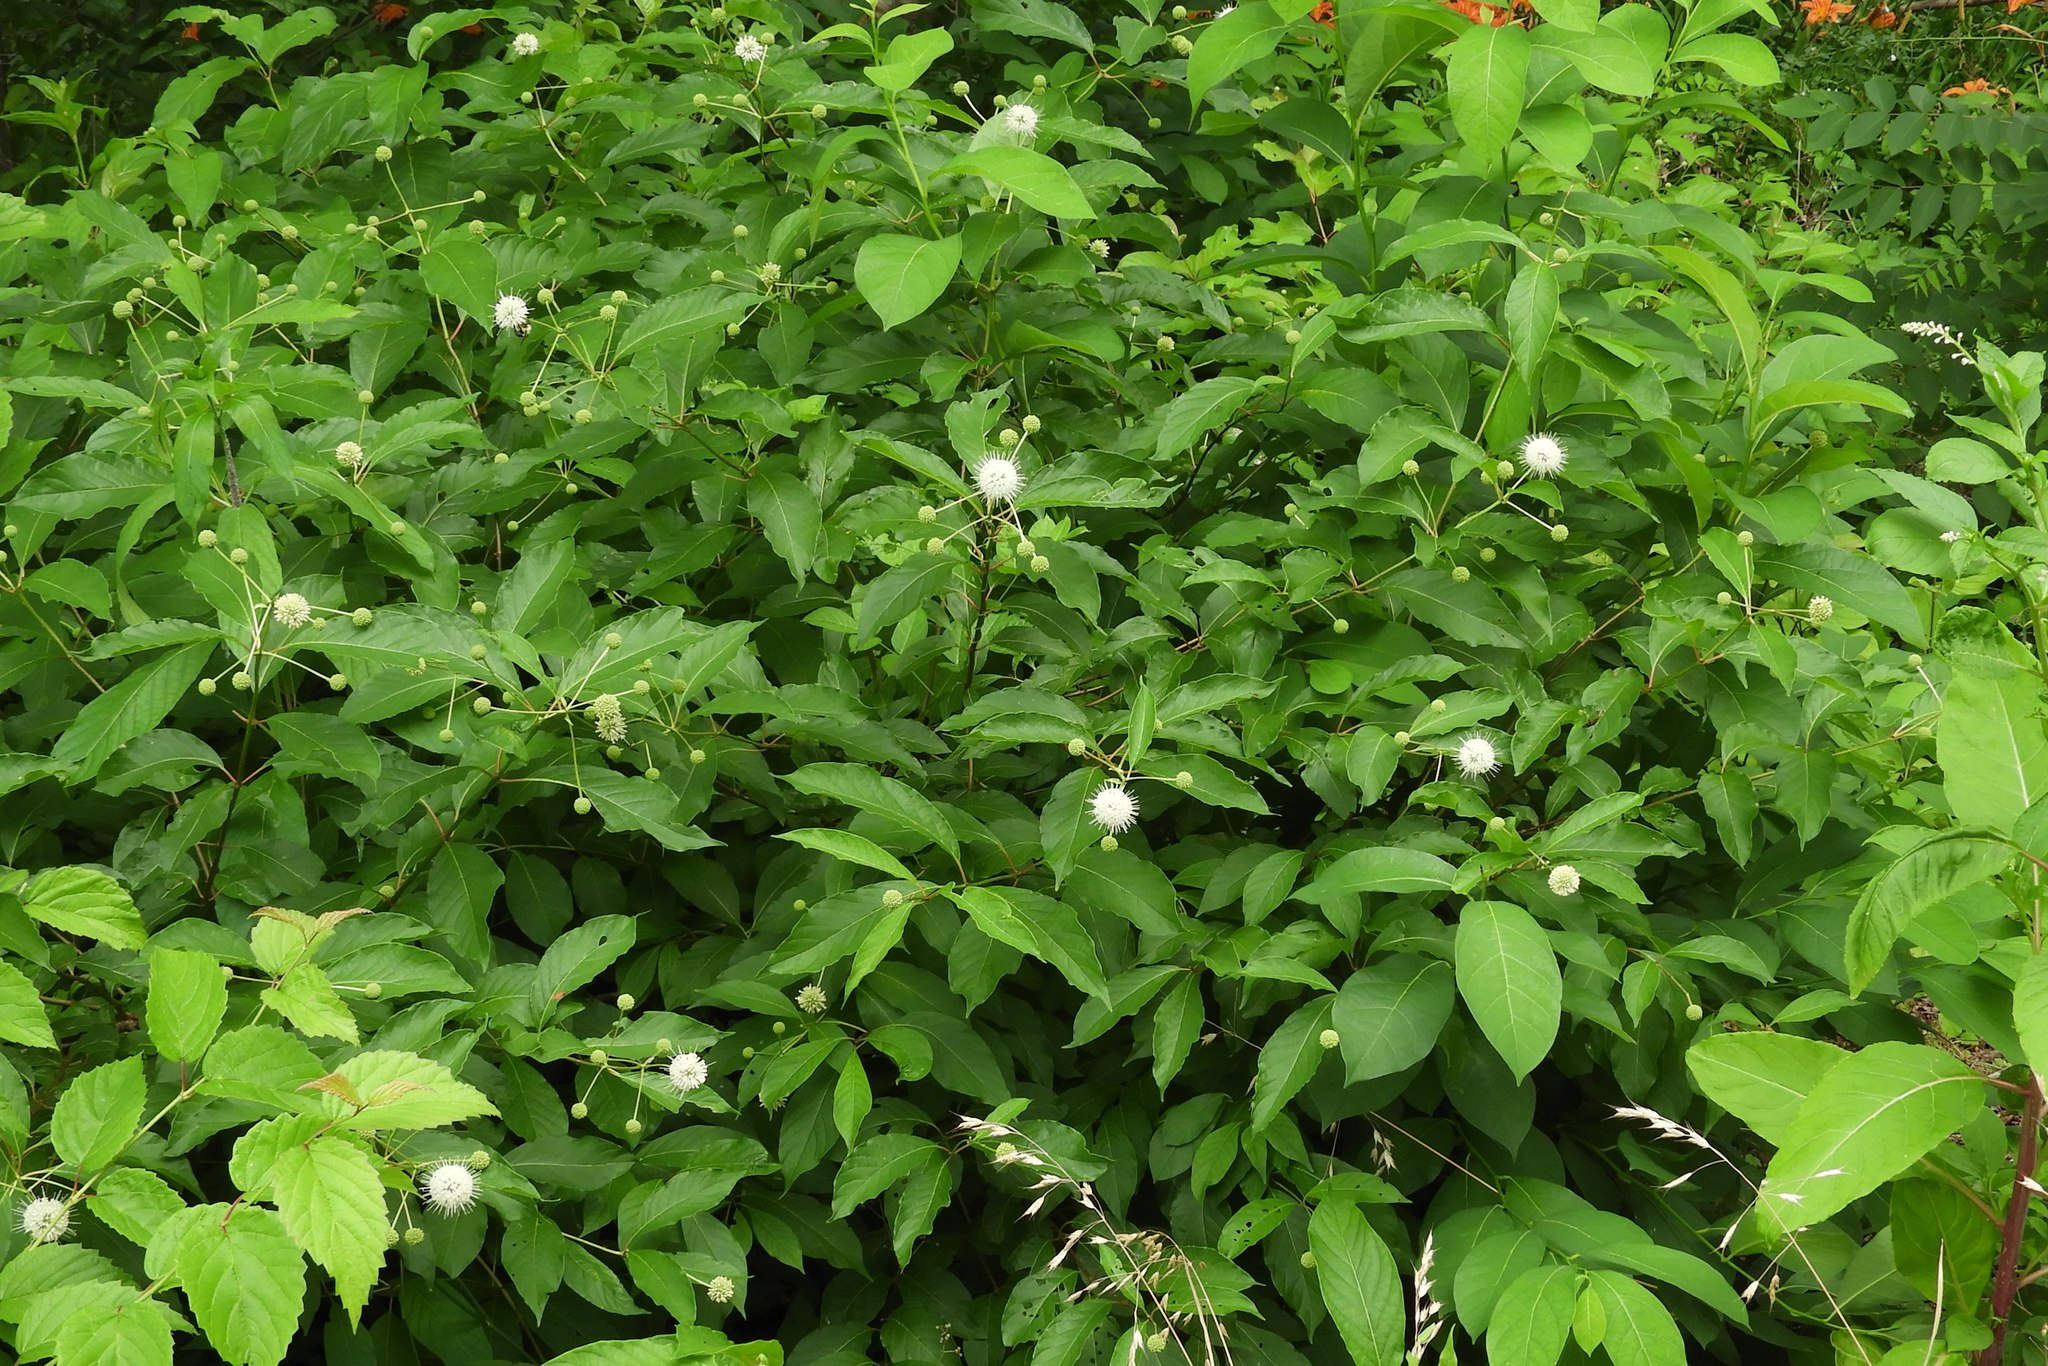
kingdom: Plantae
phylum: Tracheophyta
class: Magnoliopsida
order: Gentianales
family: Rubiaceae
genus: Cephalanthus
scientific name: Cephalanthus occidentalis
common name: Button-willow
